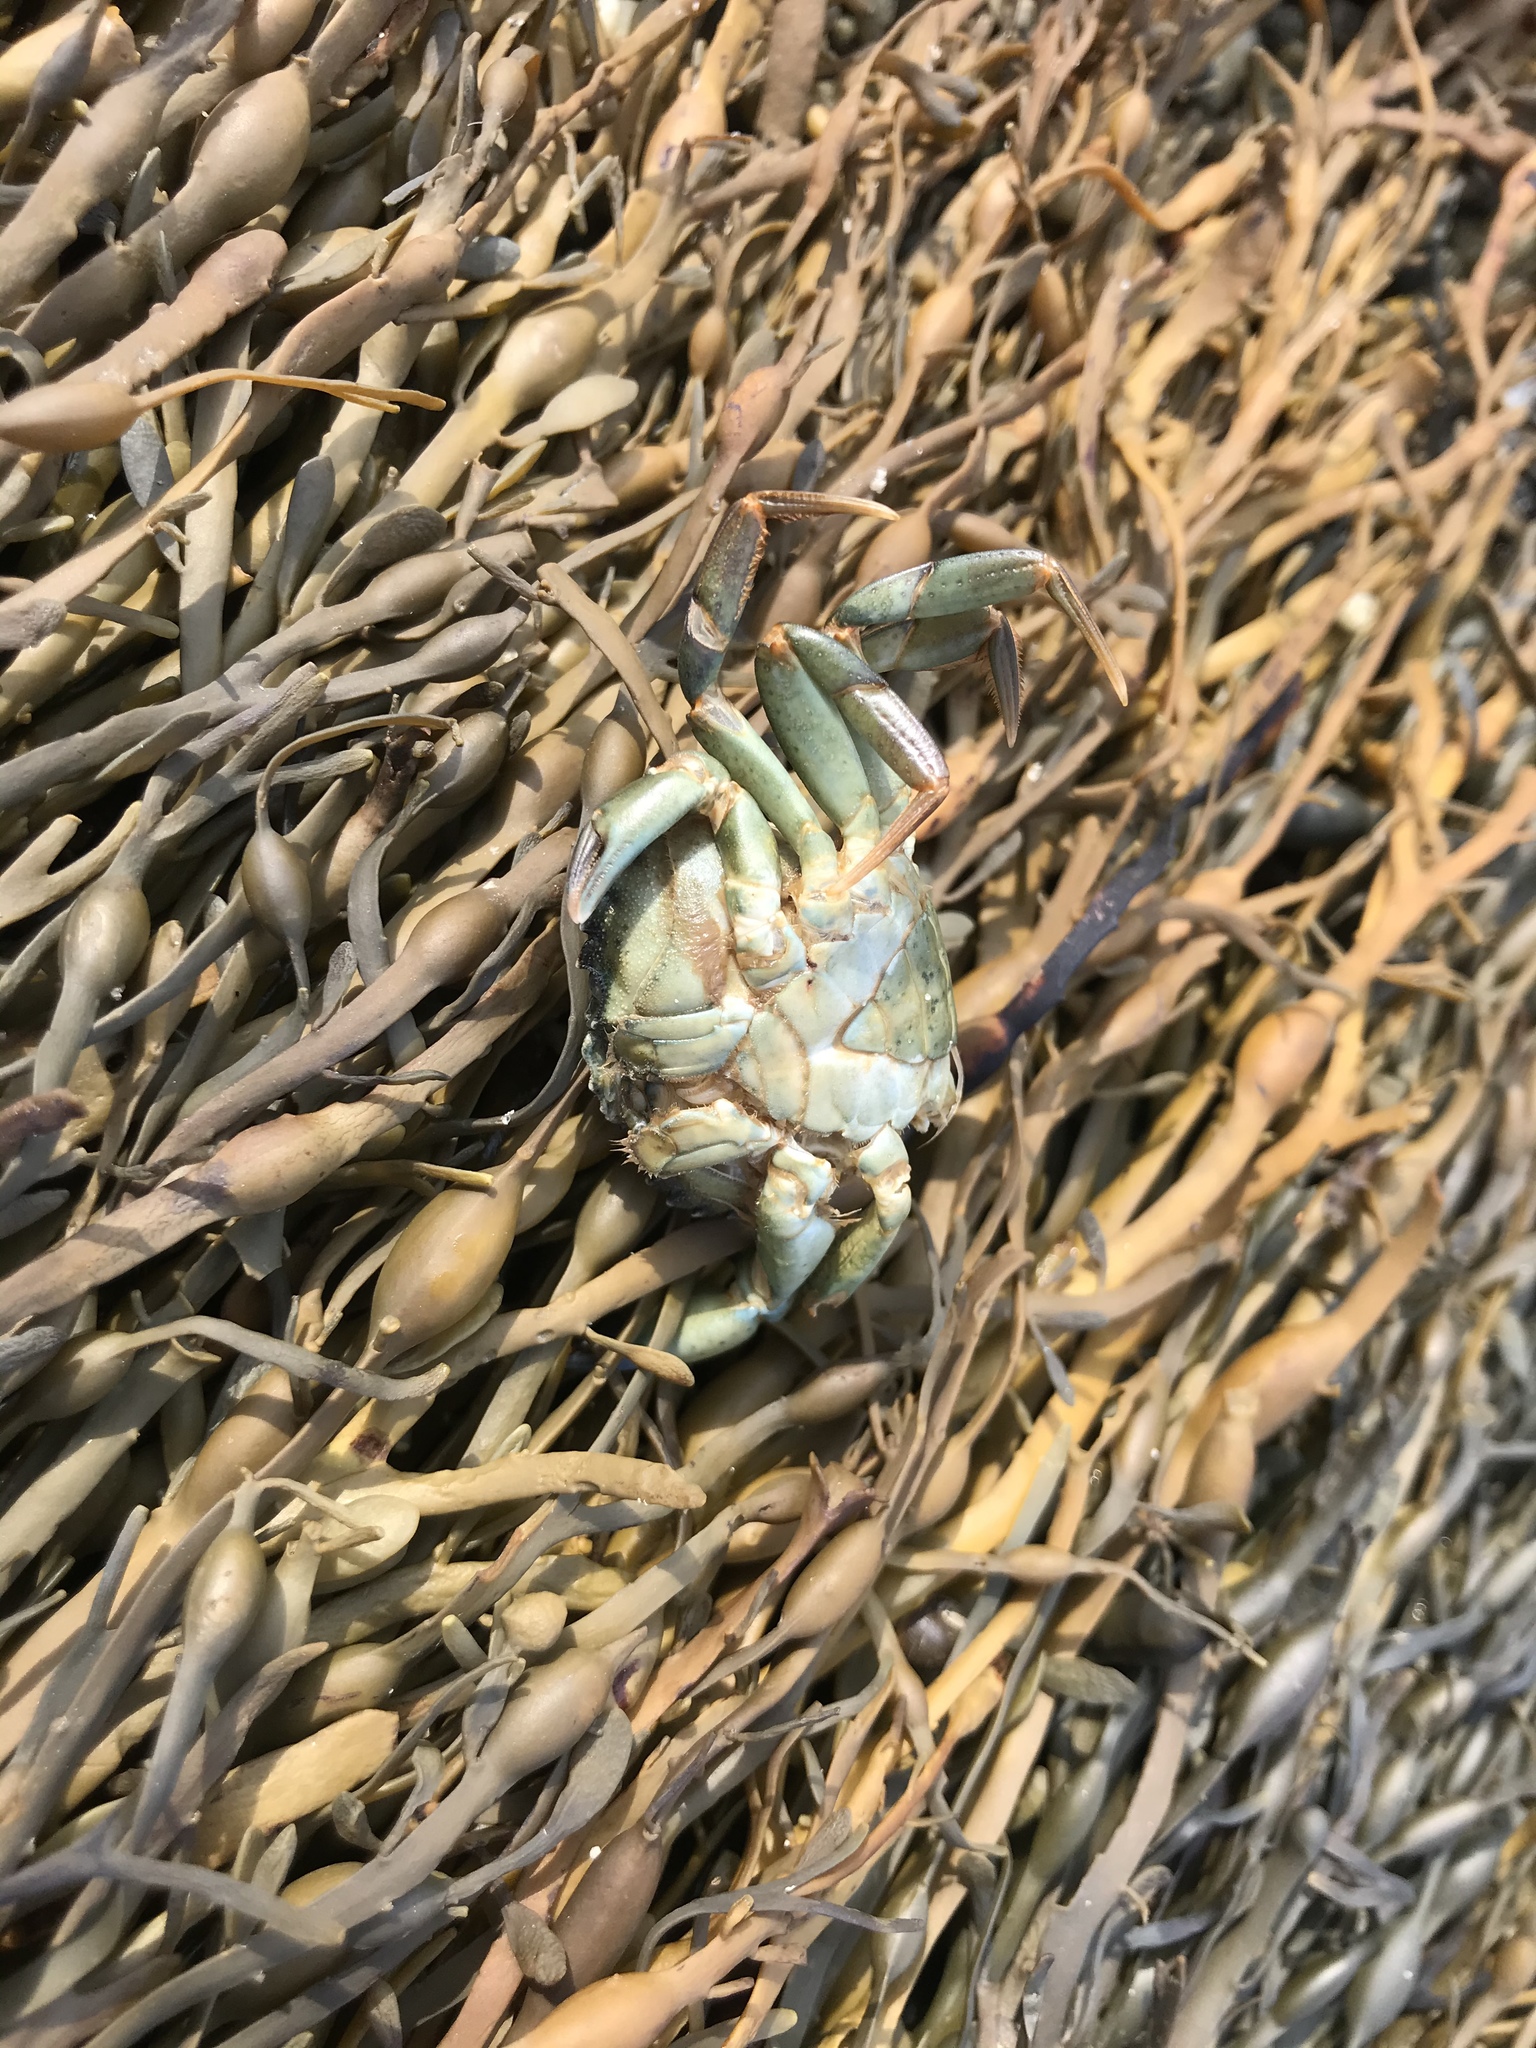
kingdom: Animalia
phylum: Arthropoda
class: Malacostraca
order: Decapoda
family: Carcinidae
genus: Carcinus
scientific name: Carcinus maenas
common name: European green crab
